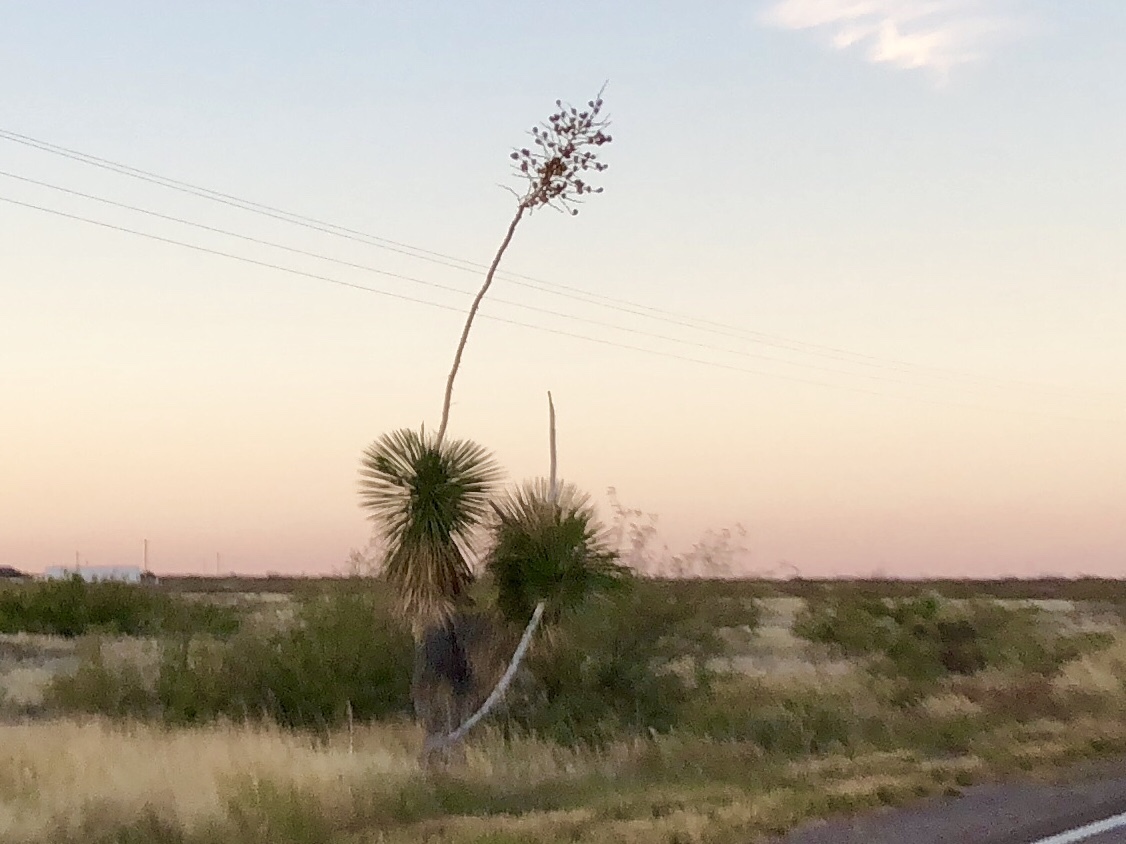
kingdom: Plantae
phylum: Tracheophyta
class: Liliopsida
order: Asparagales
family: Asparagaceae
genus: Yucca
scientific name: Yucca elata
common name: Palmella
